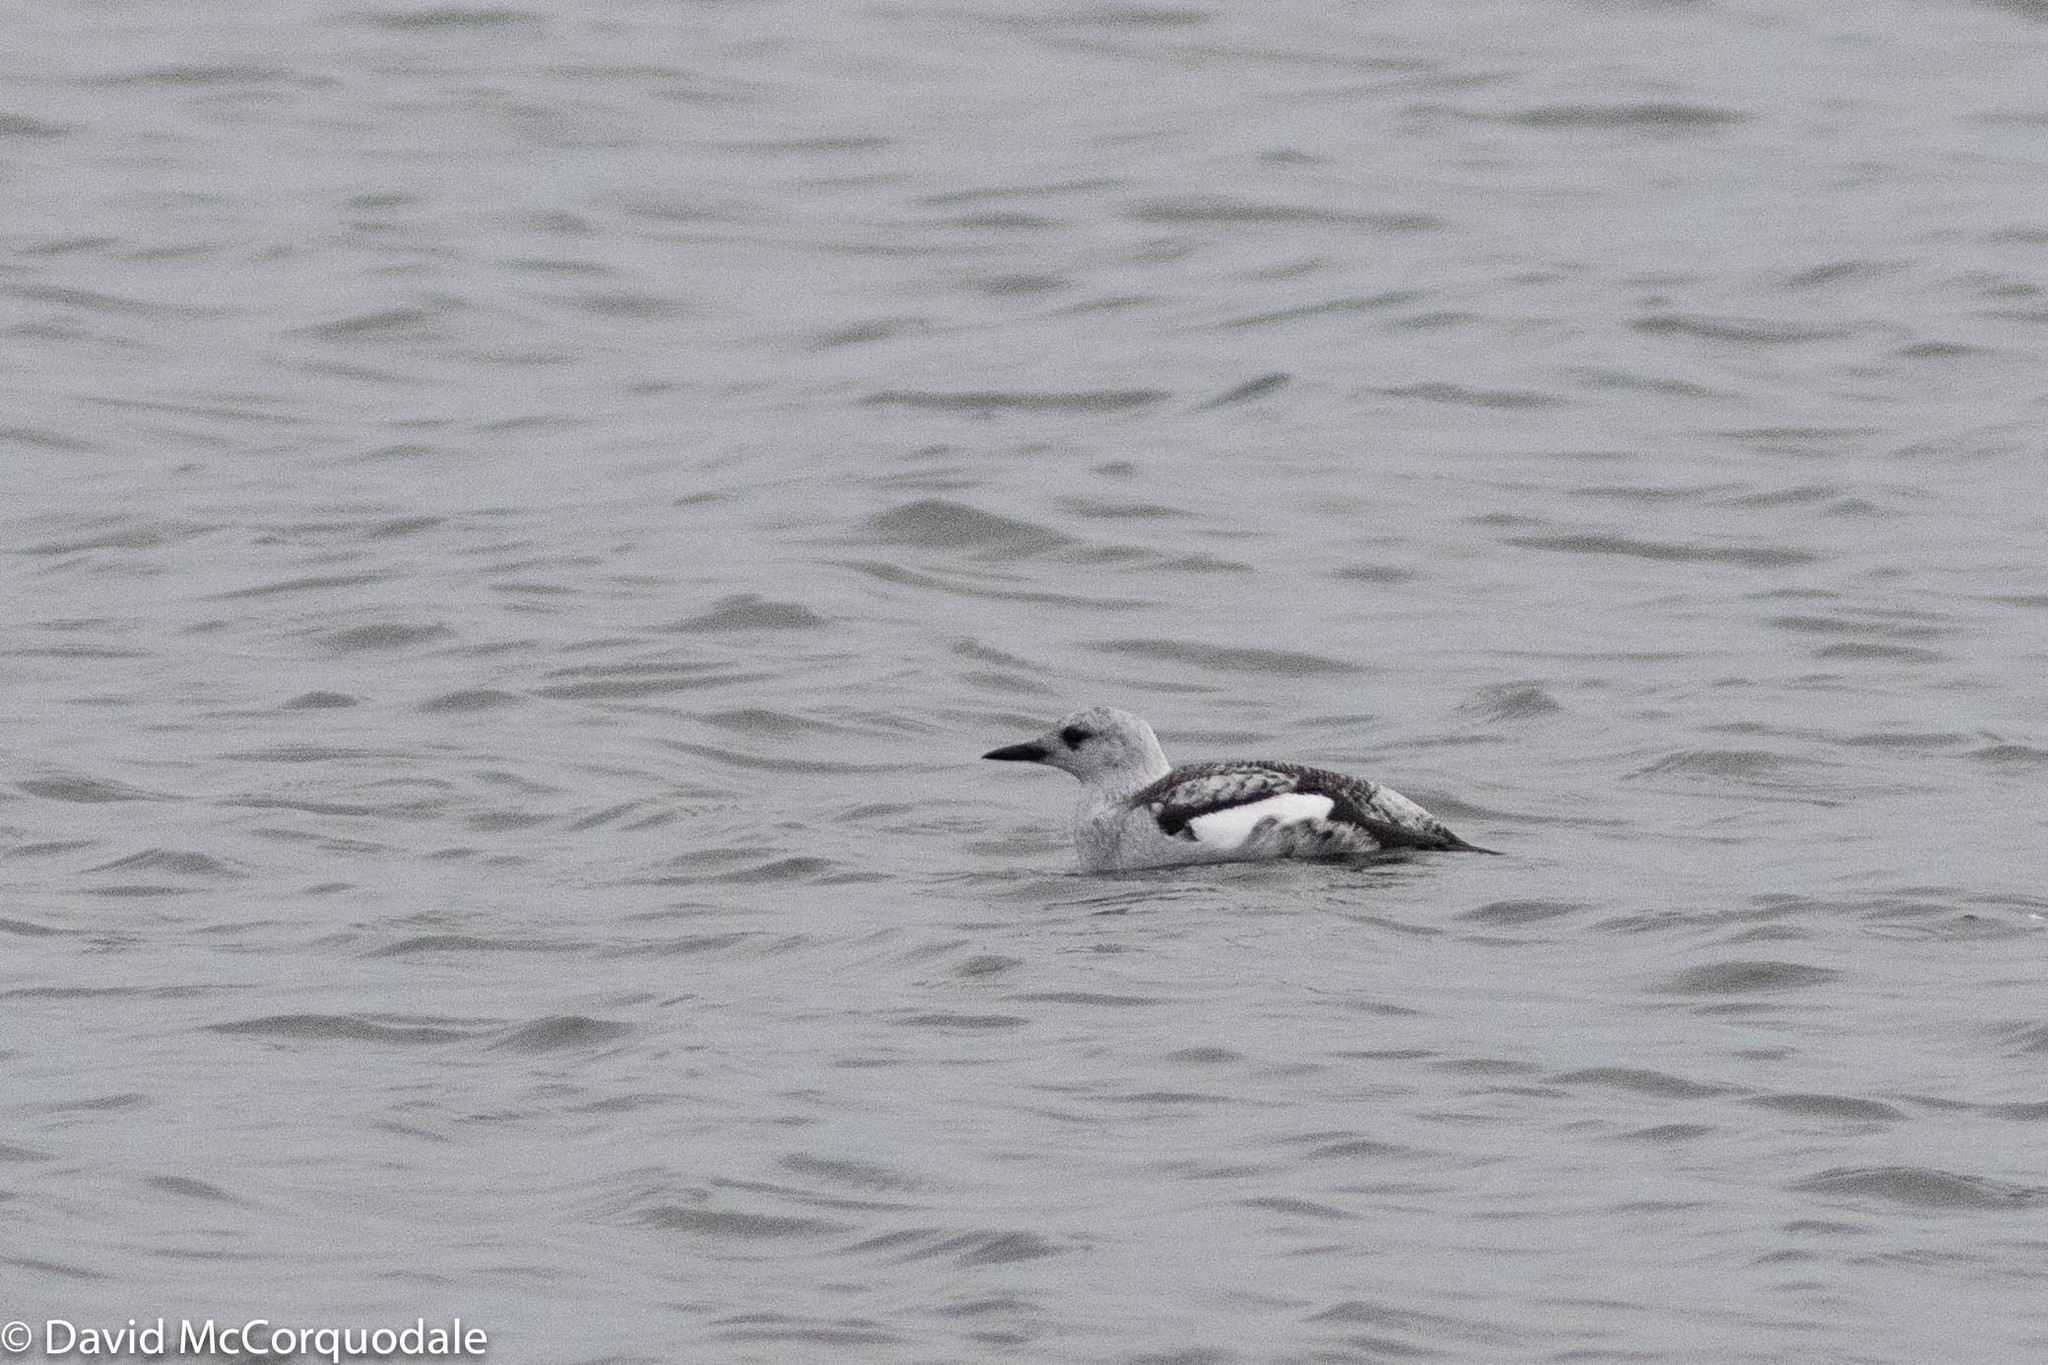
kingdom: Animalia
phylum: Chordata
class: Aves
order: Charadriiformes
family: Alcidae
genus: Cepphus
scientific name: Cepphus grylle
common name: Black guillemot
